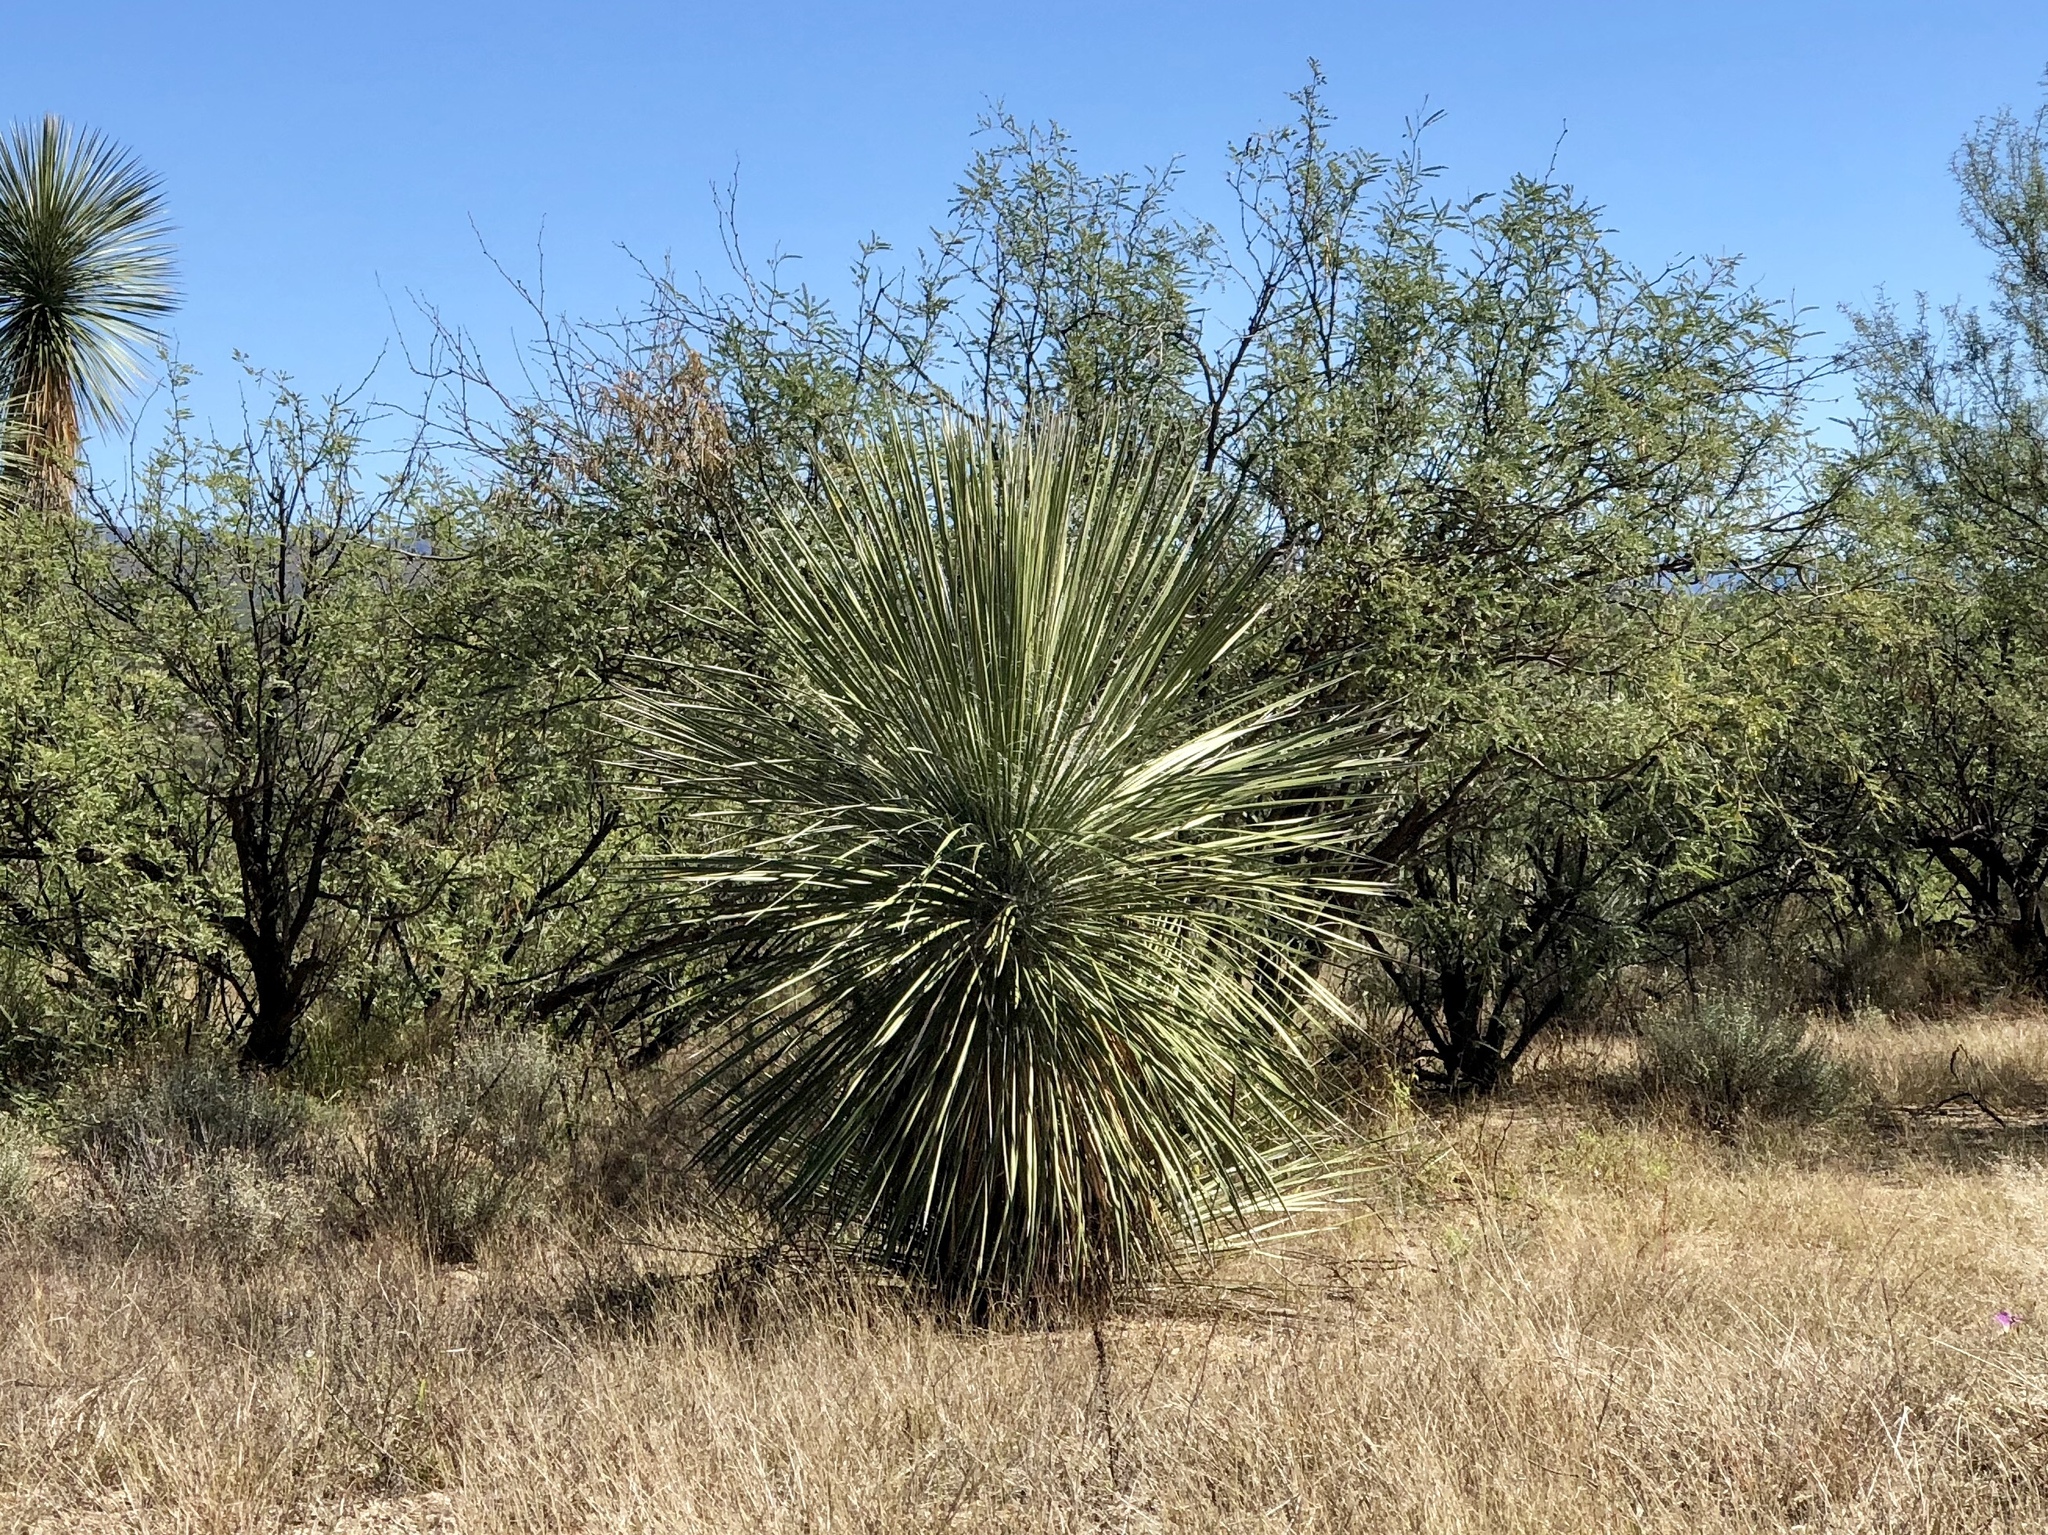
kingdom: Plantae
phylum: Tracheophyta
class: Liliopsida
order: Asparagales
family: Asparagaceae
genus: Yucca
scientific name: Yucca elata
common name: Palmella
